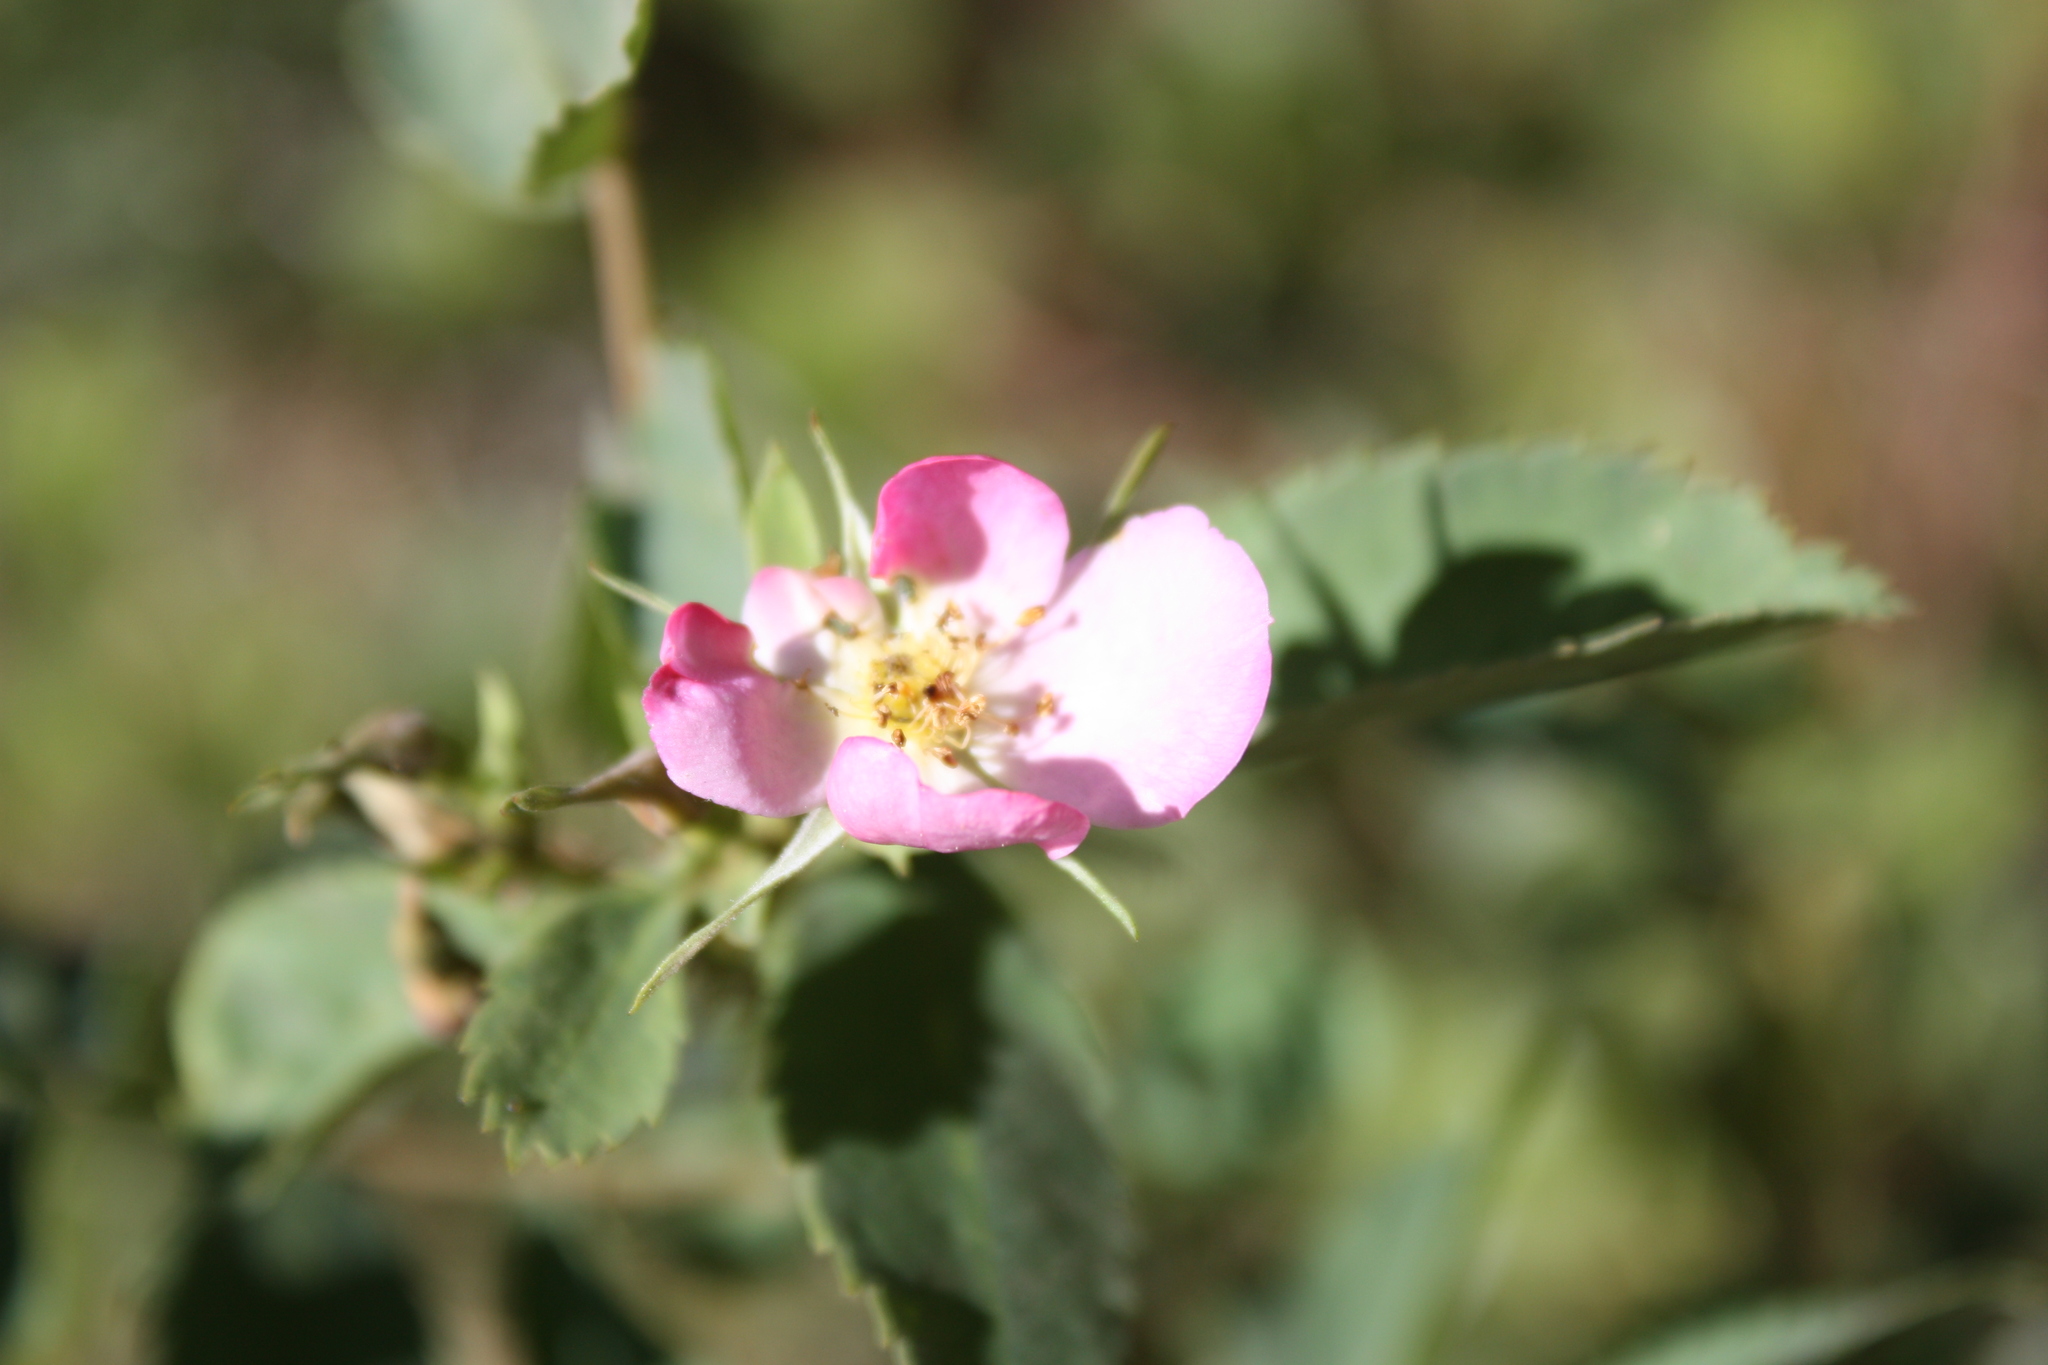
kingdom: Plantae
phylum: Tracheophyta
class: Magnoliopsida
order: Rosales
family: Rosaceae
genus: Rosa
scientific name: Rosa woodsii
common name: Woods's rose
